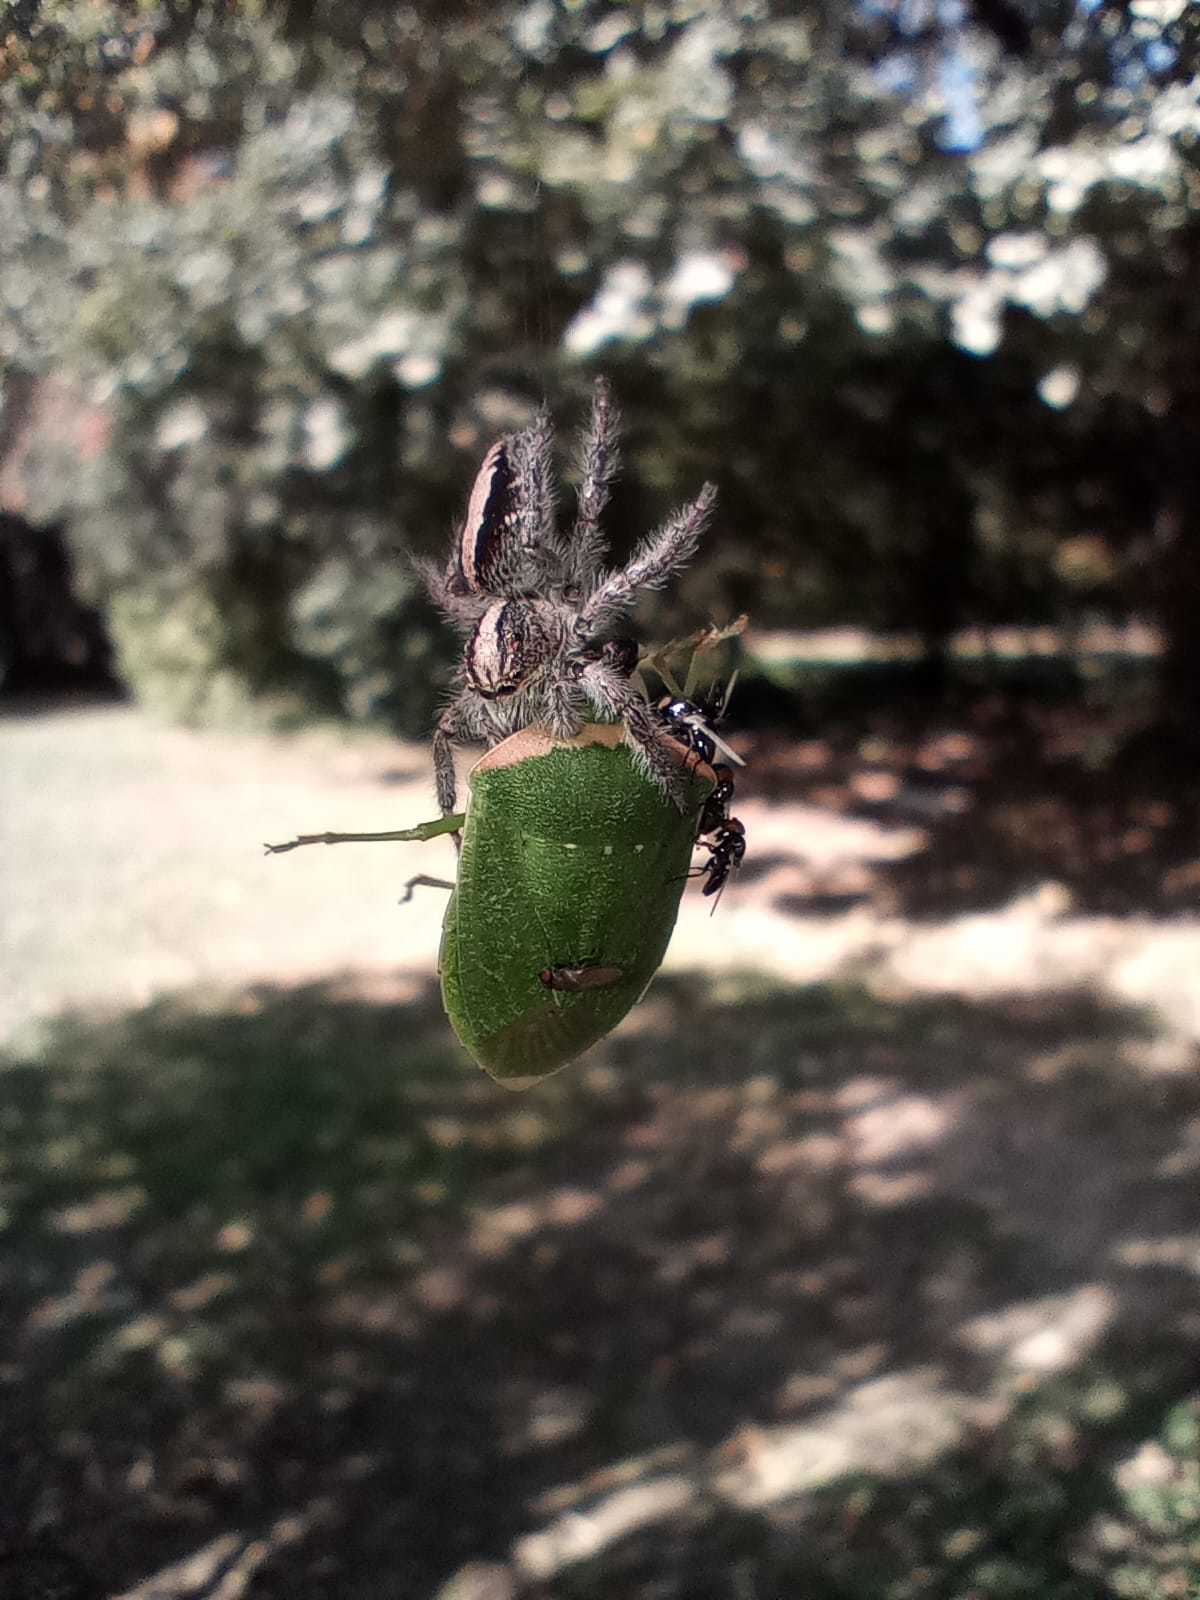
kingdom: Animalia
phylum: Arthropoda
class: Insecta
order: Hemiptera
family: Pentatomidae
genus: Nezara
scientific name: Nezara viridula
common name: Southern green stink bug
